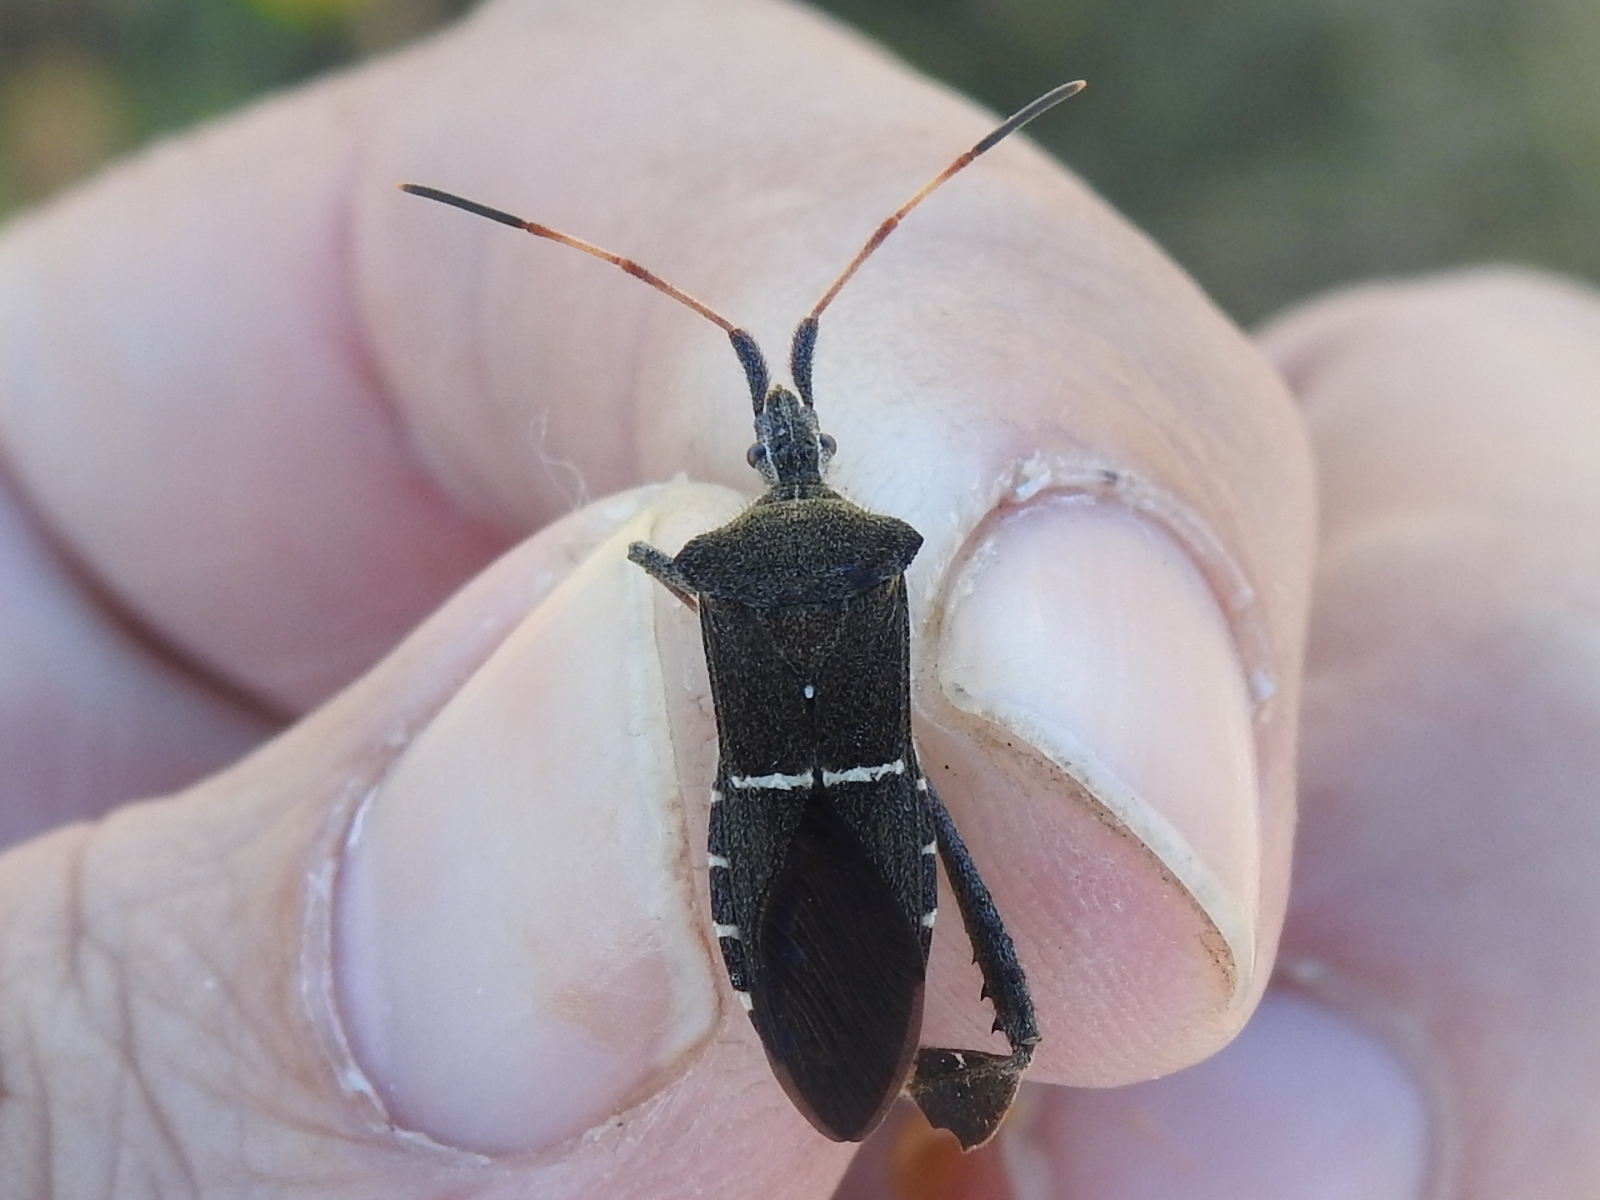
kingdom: Animalia
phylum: Arthropoda
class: Insecta
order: Hemiptera
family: Coreidae
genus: Leptoglossus
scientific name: Leptoglossus phyllopus
